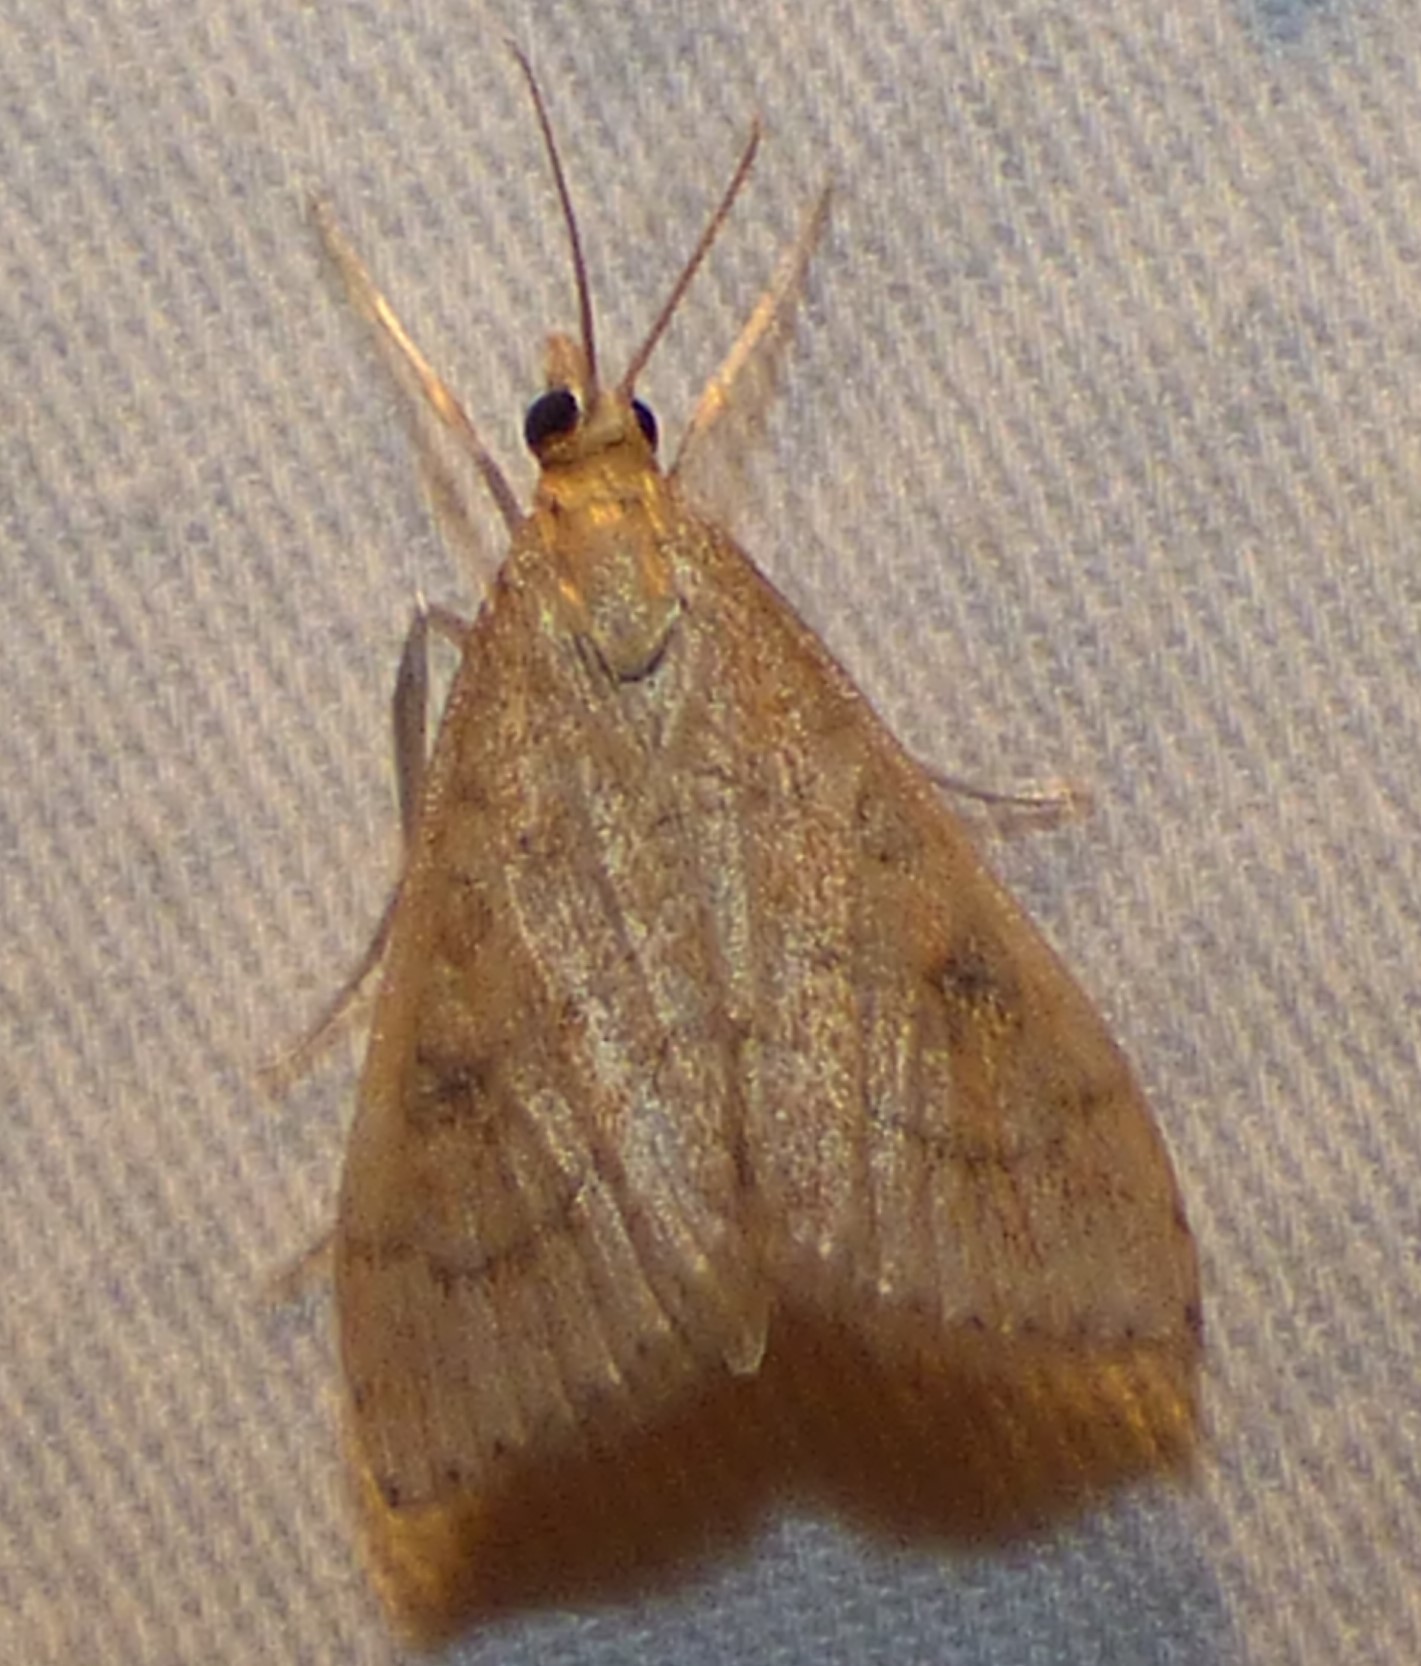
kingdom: Animalia
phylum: Arthropoda
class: Insecta
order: Lepidoptera
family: Crambidae
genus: Udea
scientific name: Udea rubigalis
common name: Celery leaftier moth
